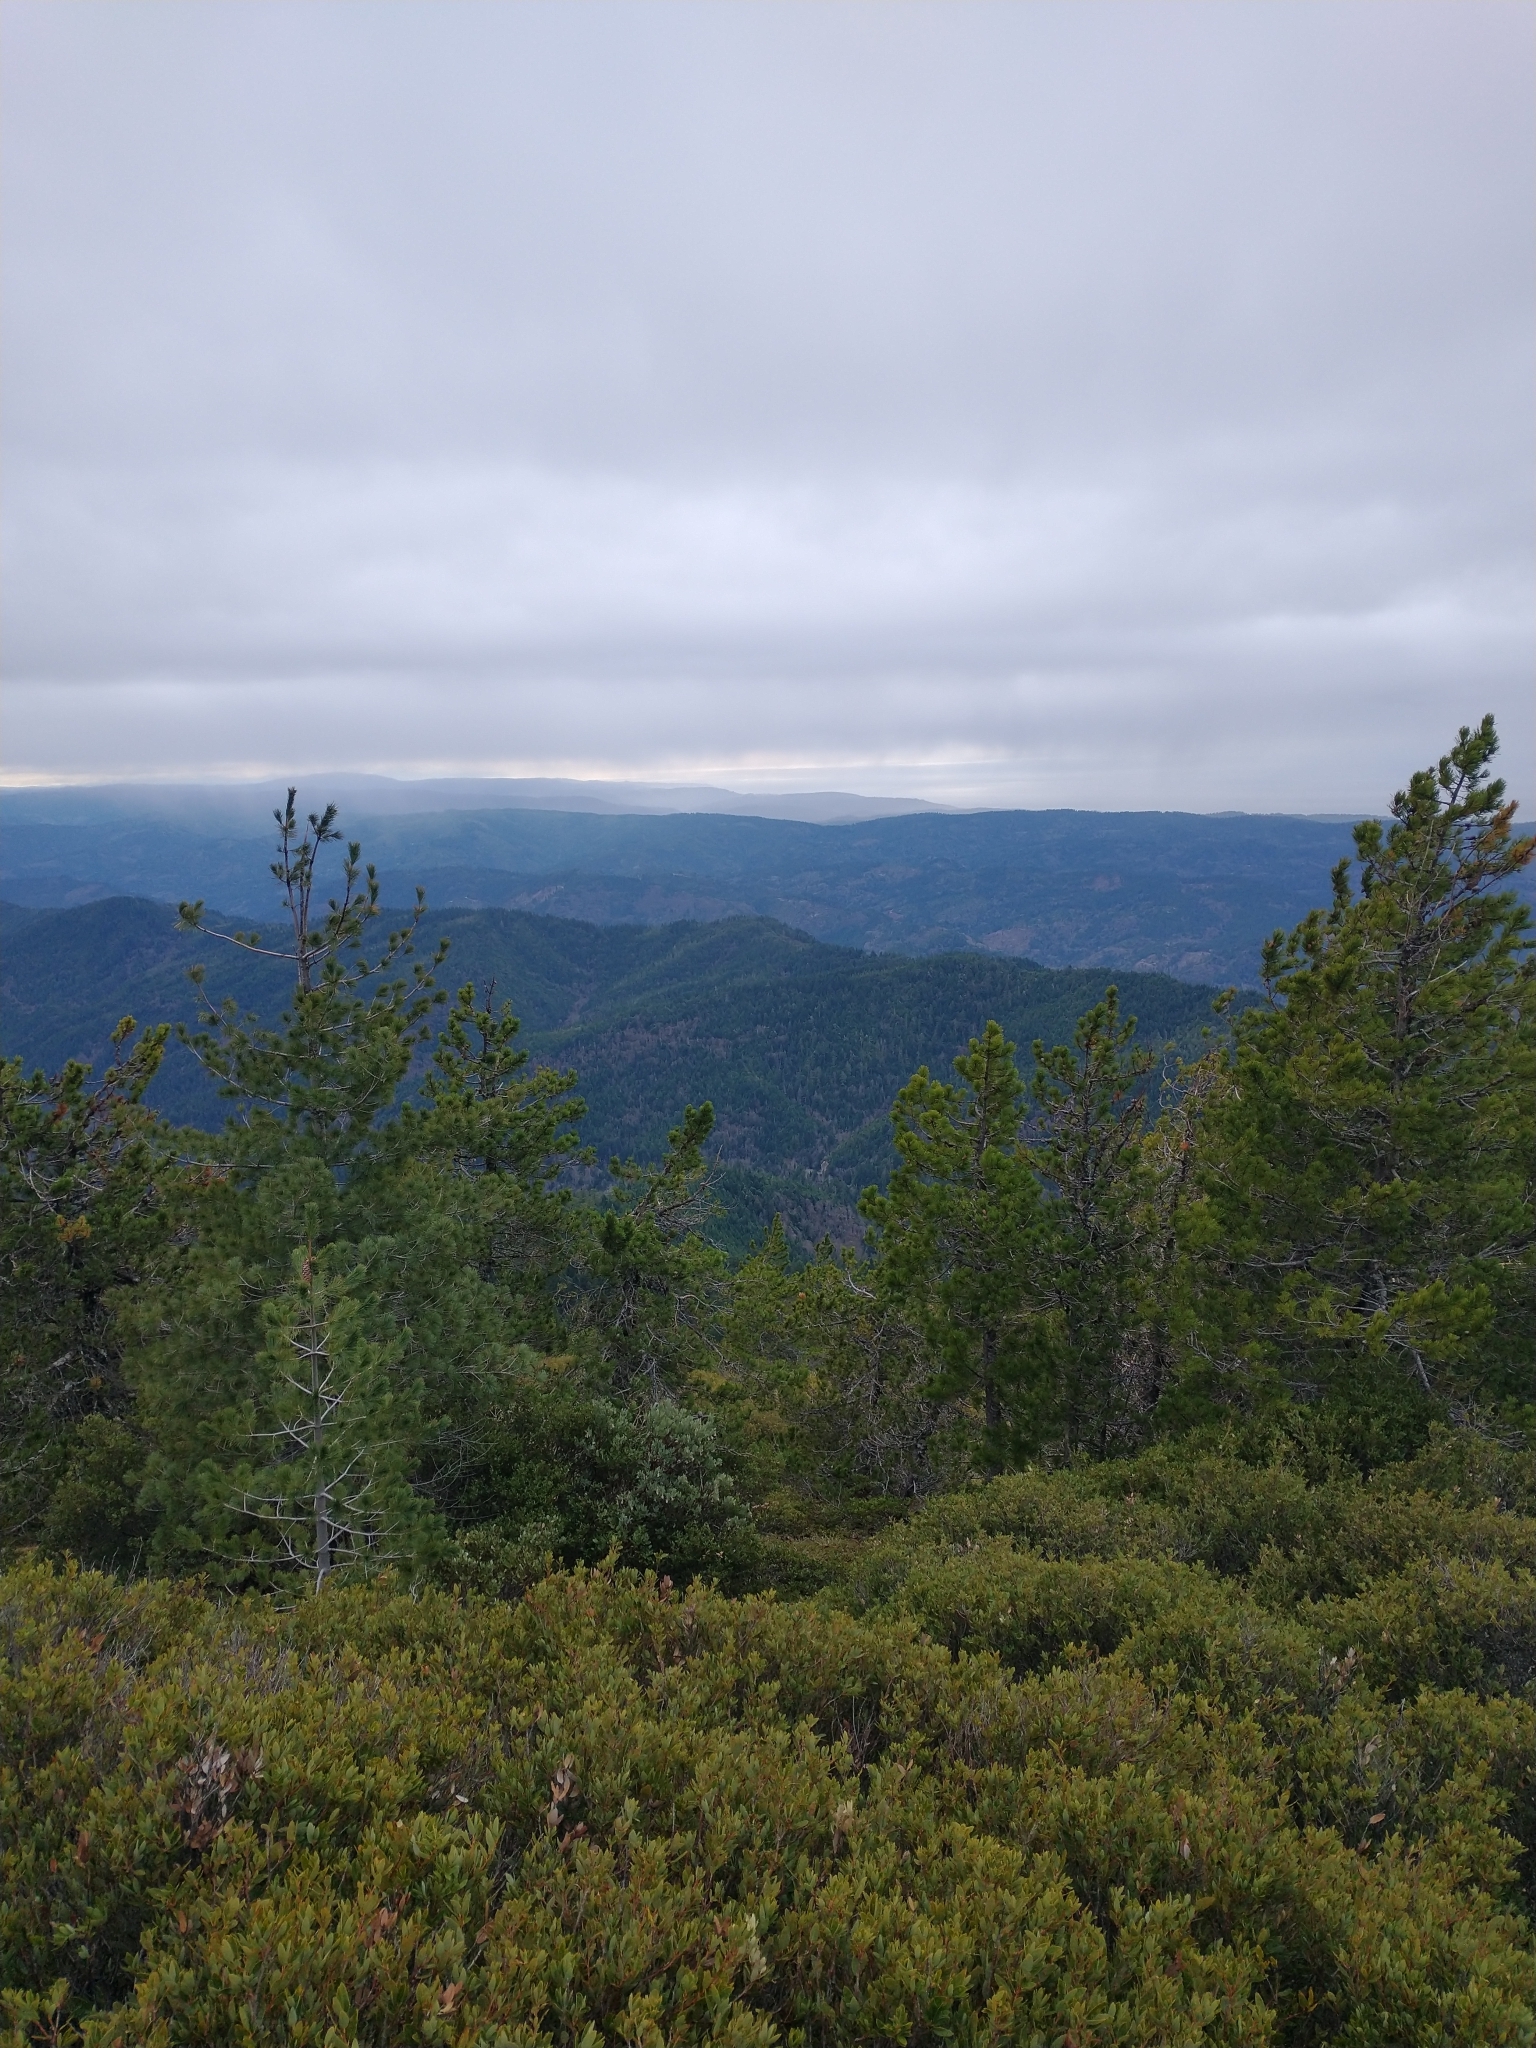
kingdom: Plantae
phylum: Tracheophyta
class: Pinopsida
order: Pinales
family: Pinaceae
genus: Pinus
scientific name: Pinus contorta
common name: Lodgepole pine
